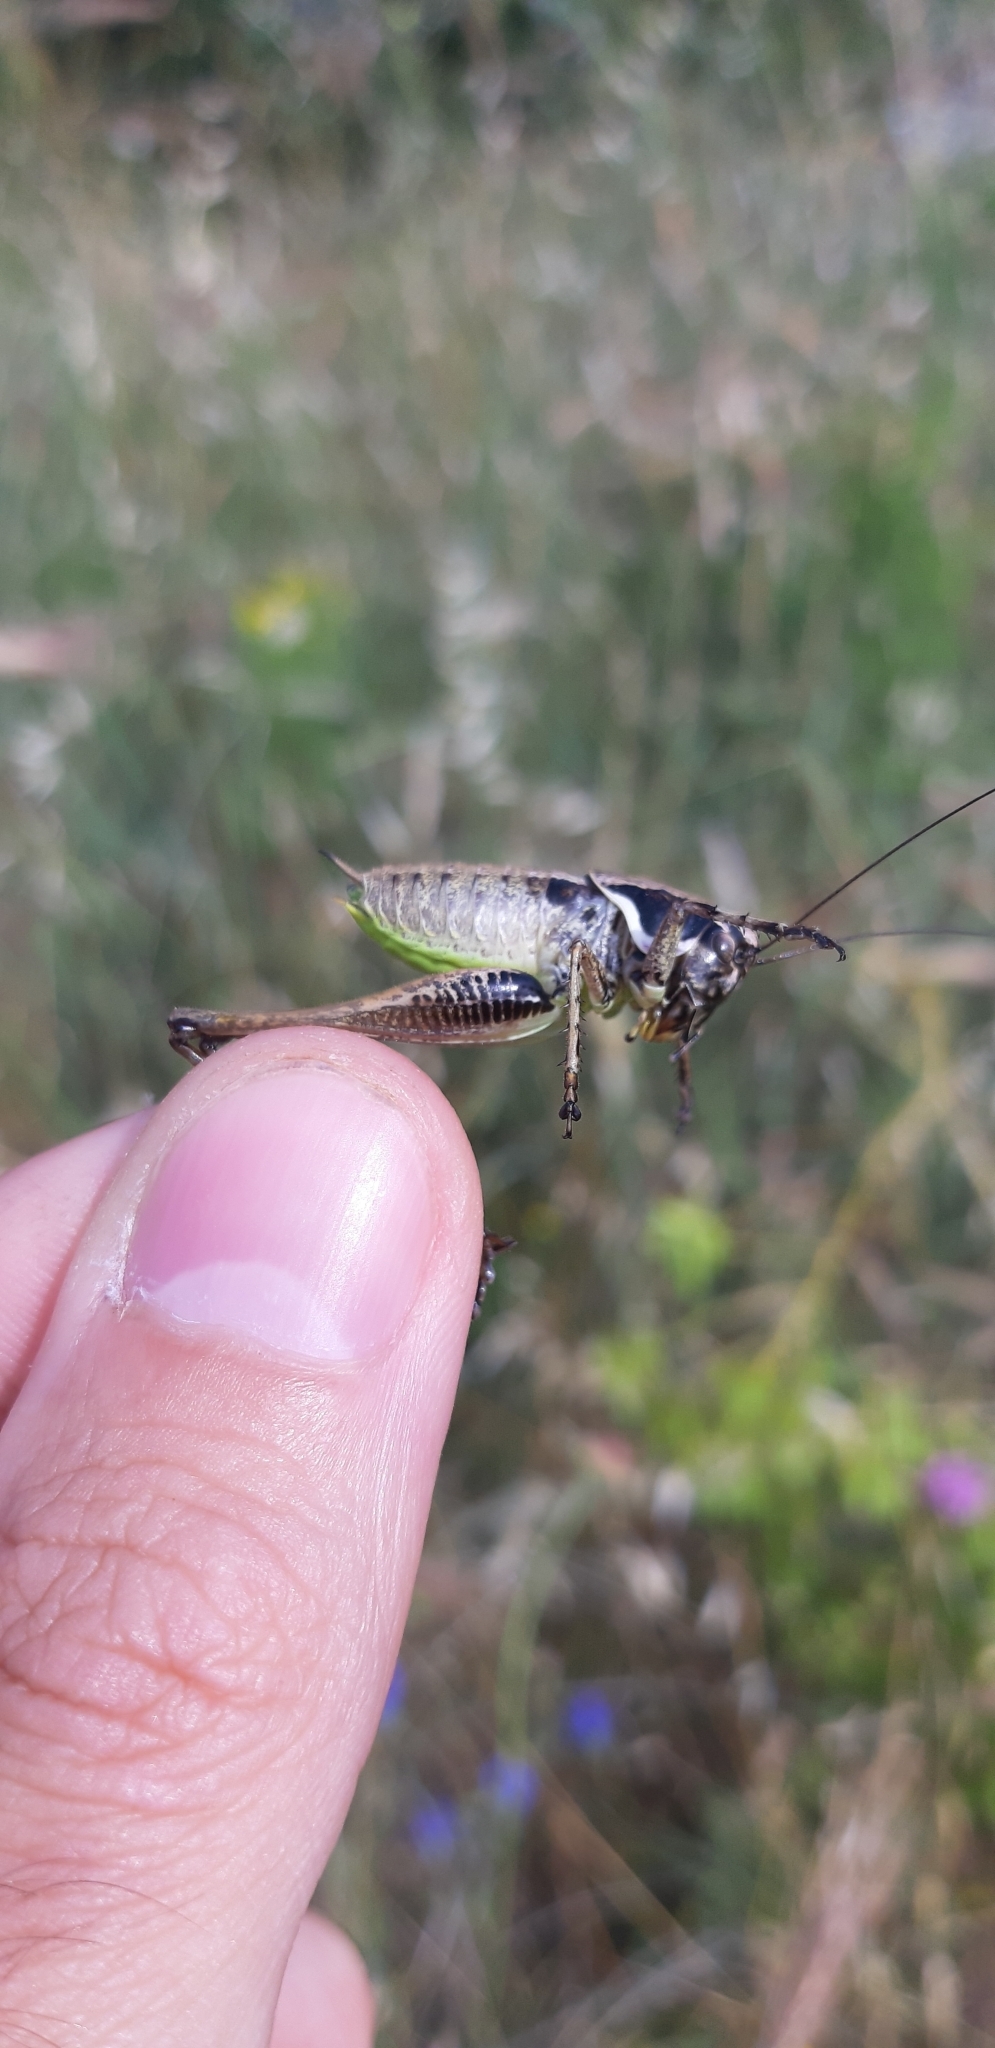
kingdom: Animalia
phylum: Arthropoda
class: Insecta
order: Orthoptera
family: Tettigoniidae
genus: Pholidoptera
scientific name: Pholidoptera femorata
